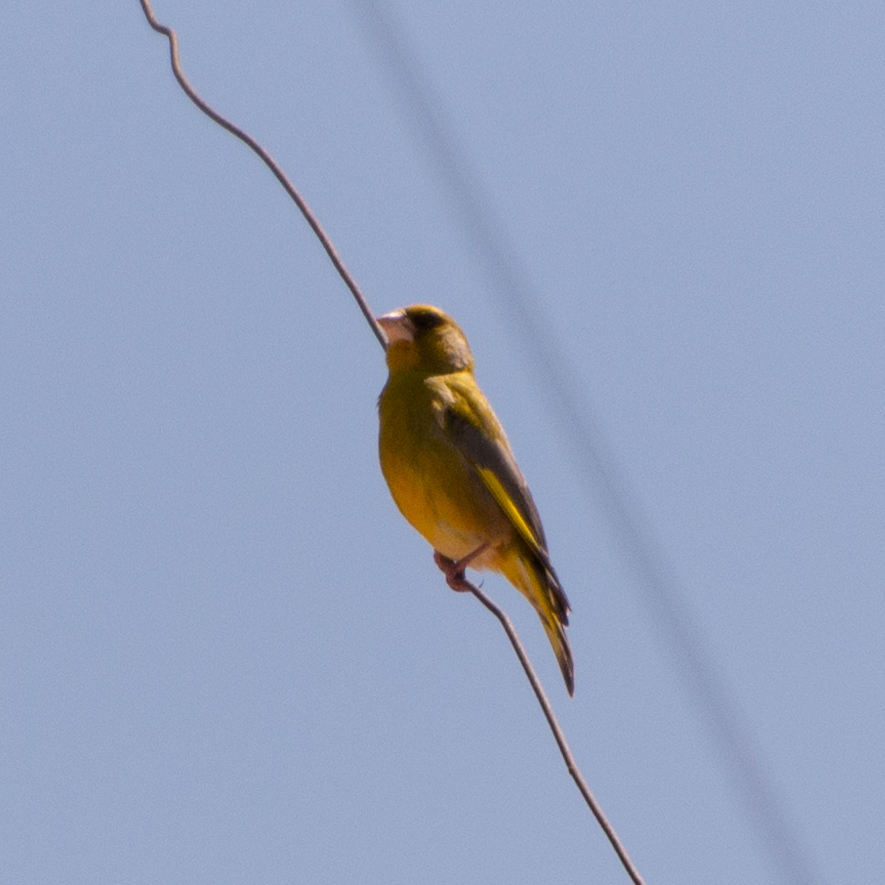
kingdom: Plantae
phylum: Tracheophyta
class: Liliopsida
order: Poales
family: Poaceae
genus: Chloris
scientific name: Chloris chloris
